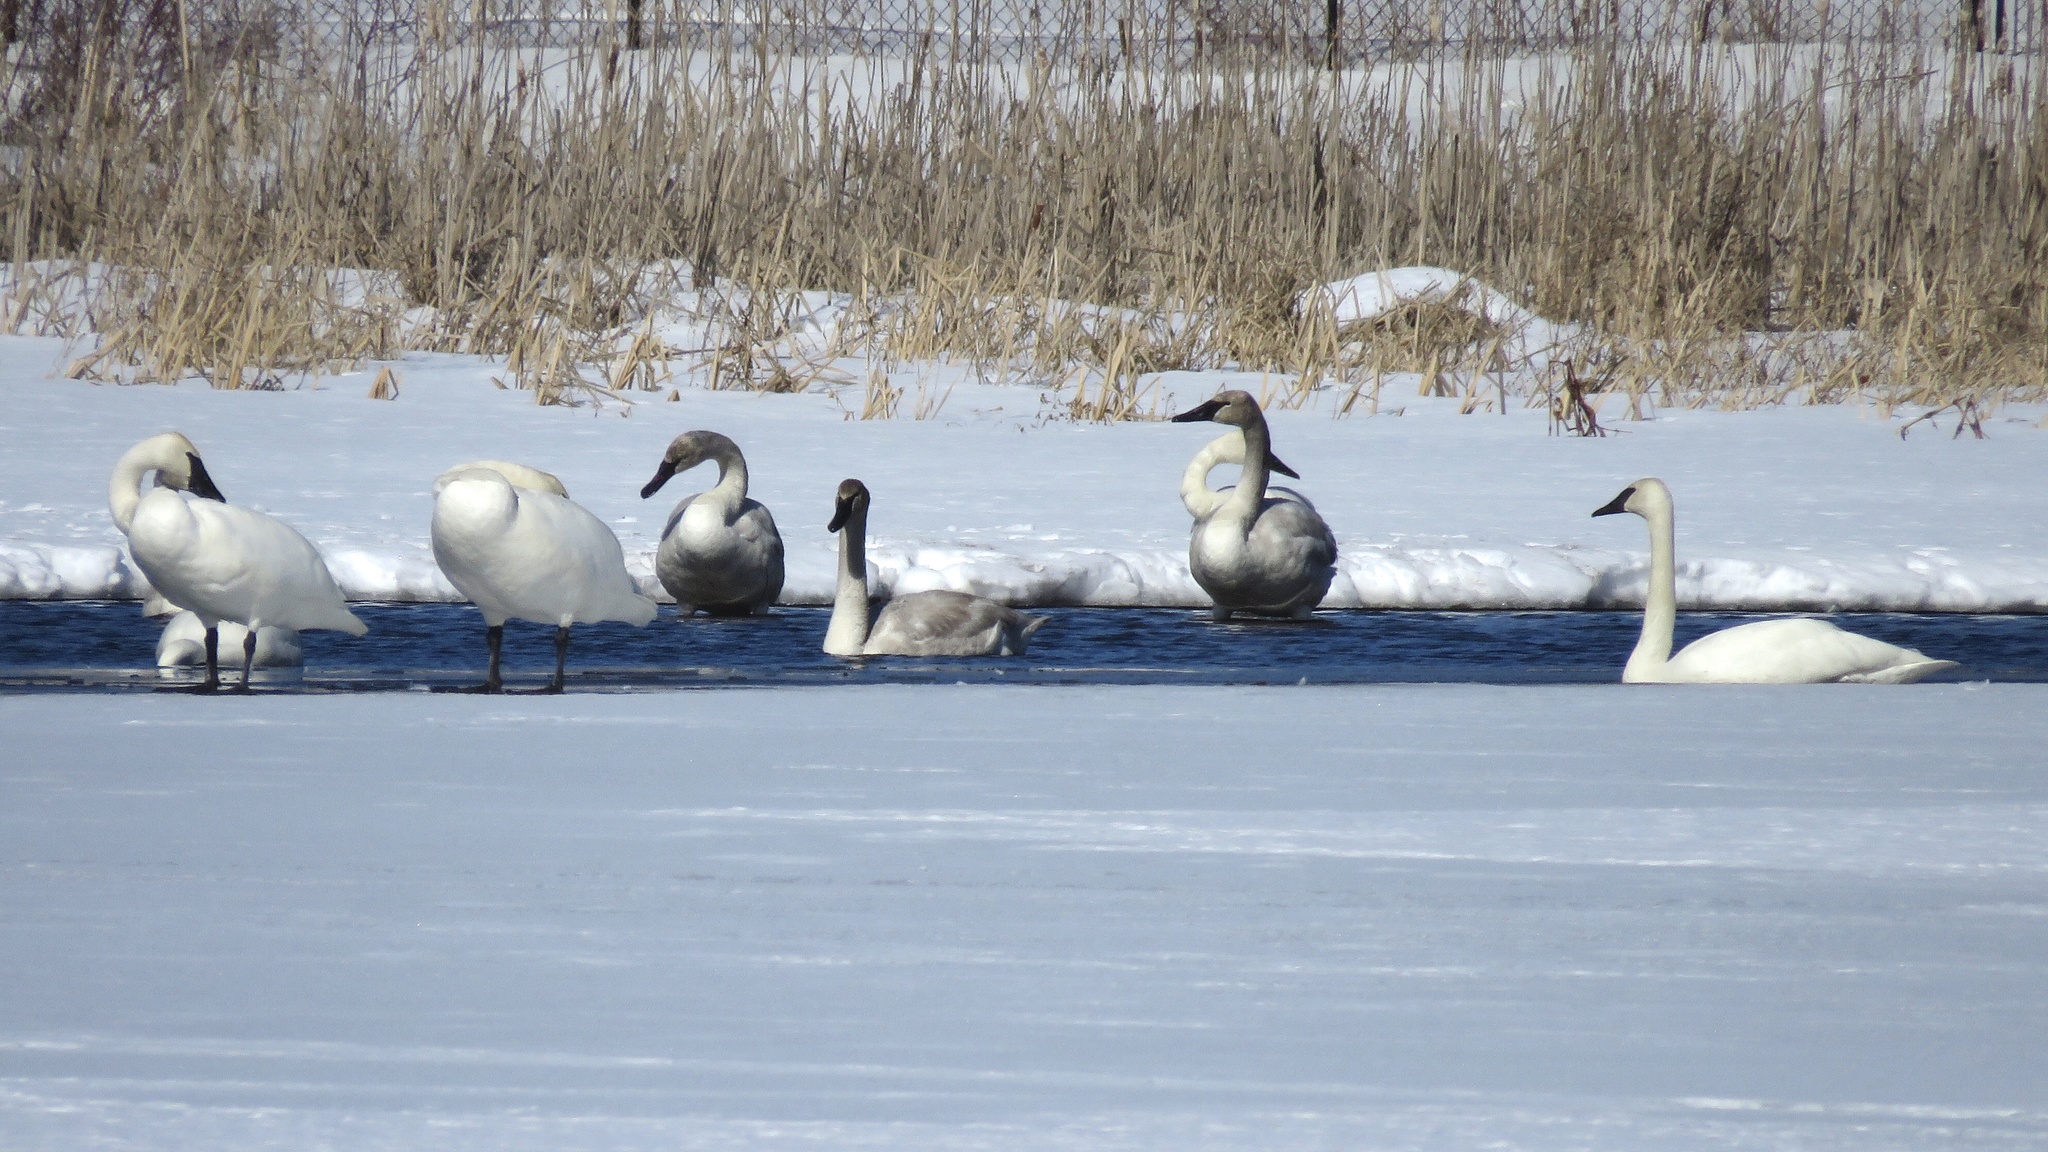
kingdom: Animalia
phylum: Chordata
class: Aves
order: Anseriformes
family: Anatidae
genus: Cygnus
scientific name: Cygnus buccinator
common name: Trumpeter swan
